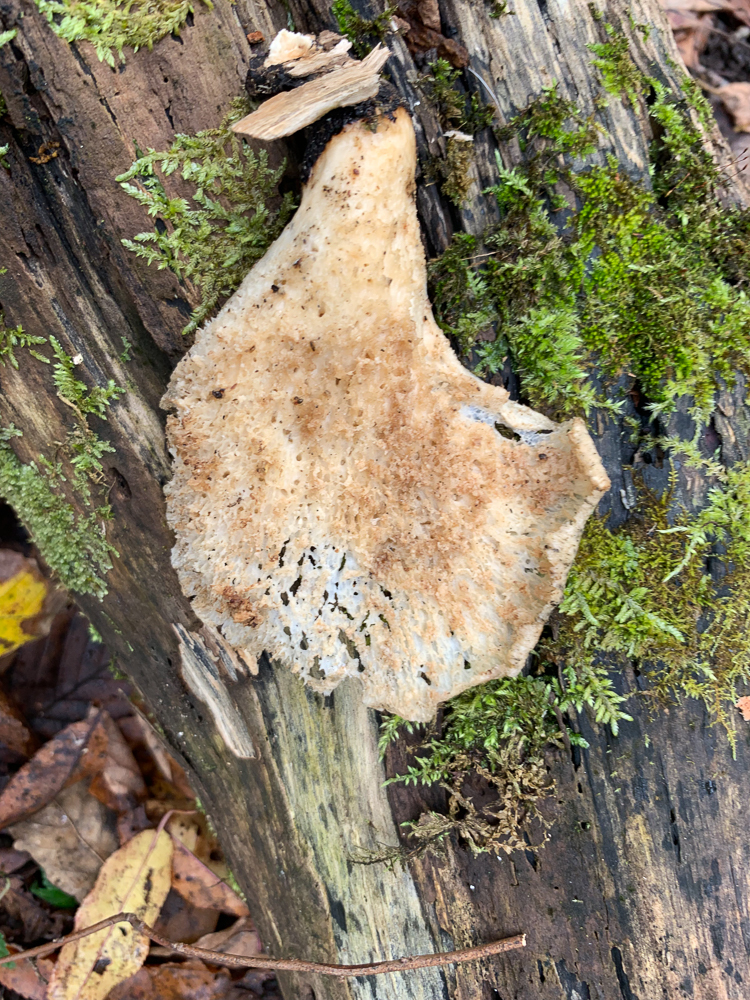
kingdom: Fungi
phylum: Basidiomycota
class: Agaricomycetes
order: Polyporales
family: Polyporaceae
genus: Cerioporus
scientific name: Cerioporus squamosus
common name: Dryad's saddle
